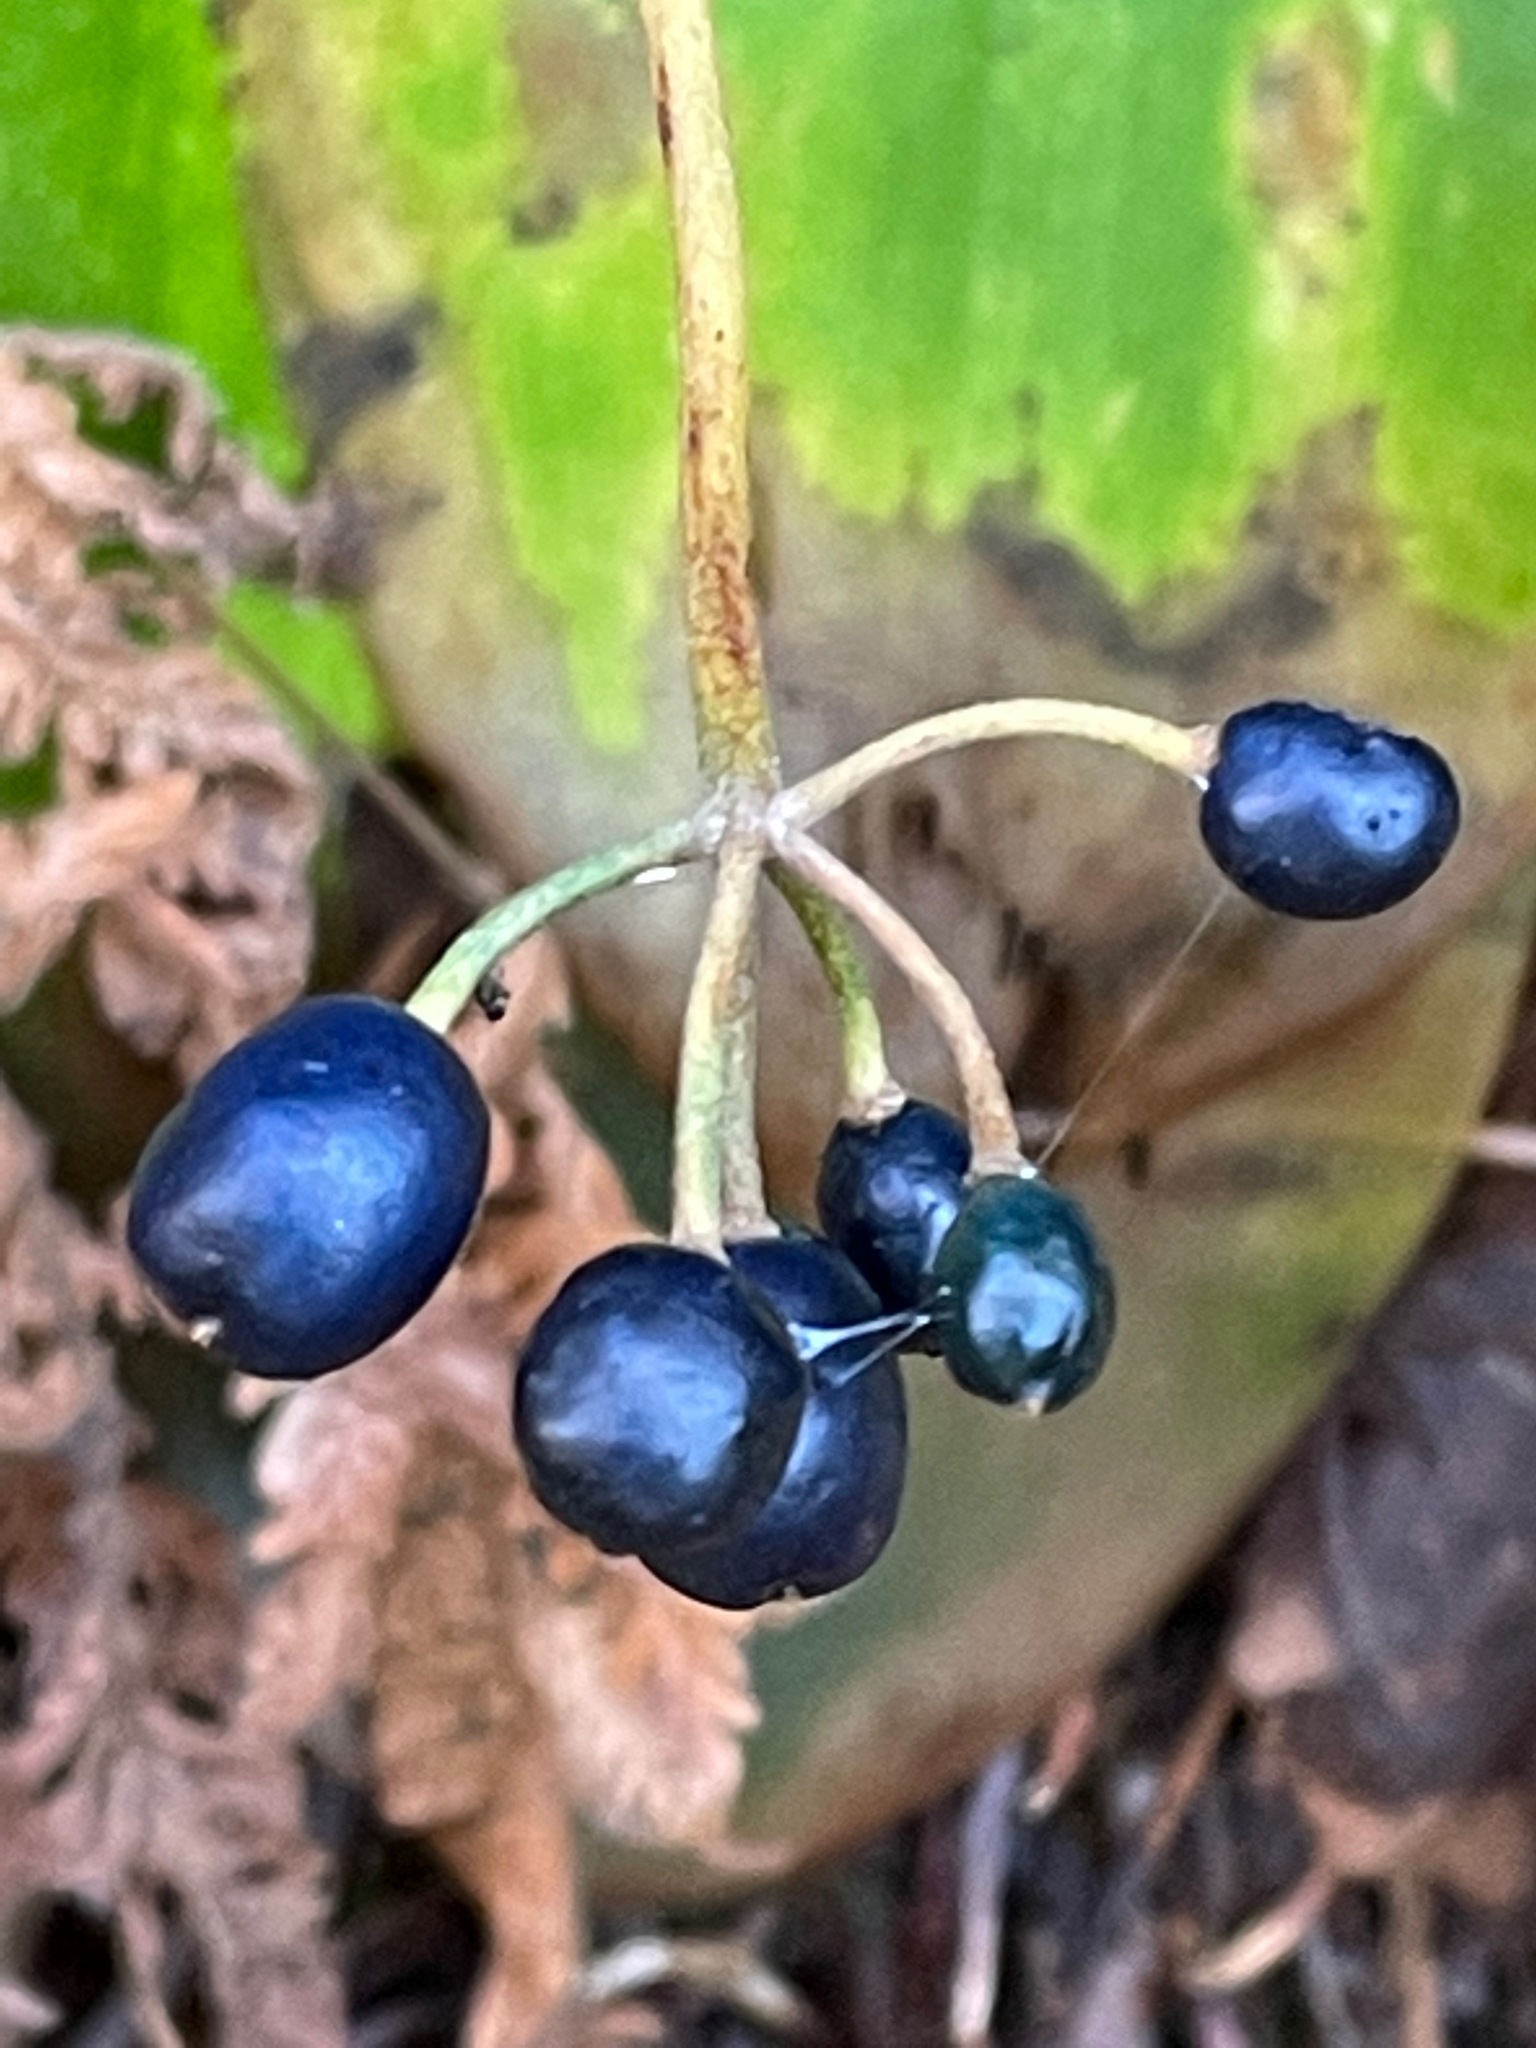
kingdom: Plantae
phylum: Tracheophyta
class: Liliopsida
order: Liliales
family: Liliaceae
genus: Clintonia
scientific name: Clintonia borealis
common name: Yellow clintonia
